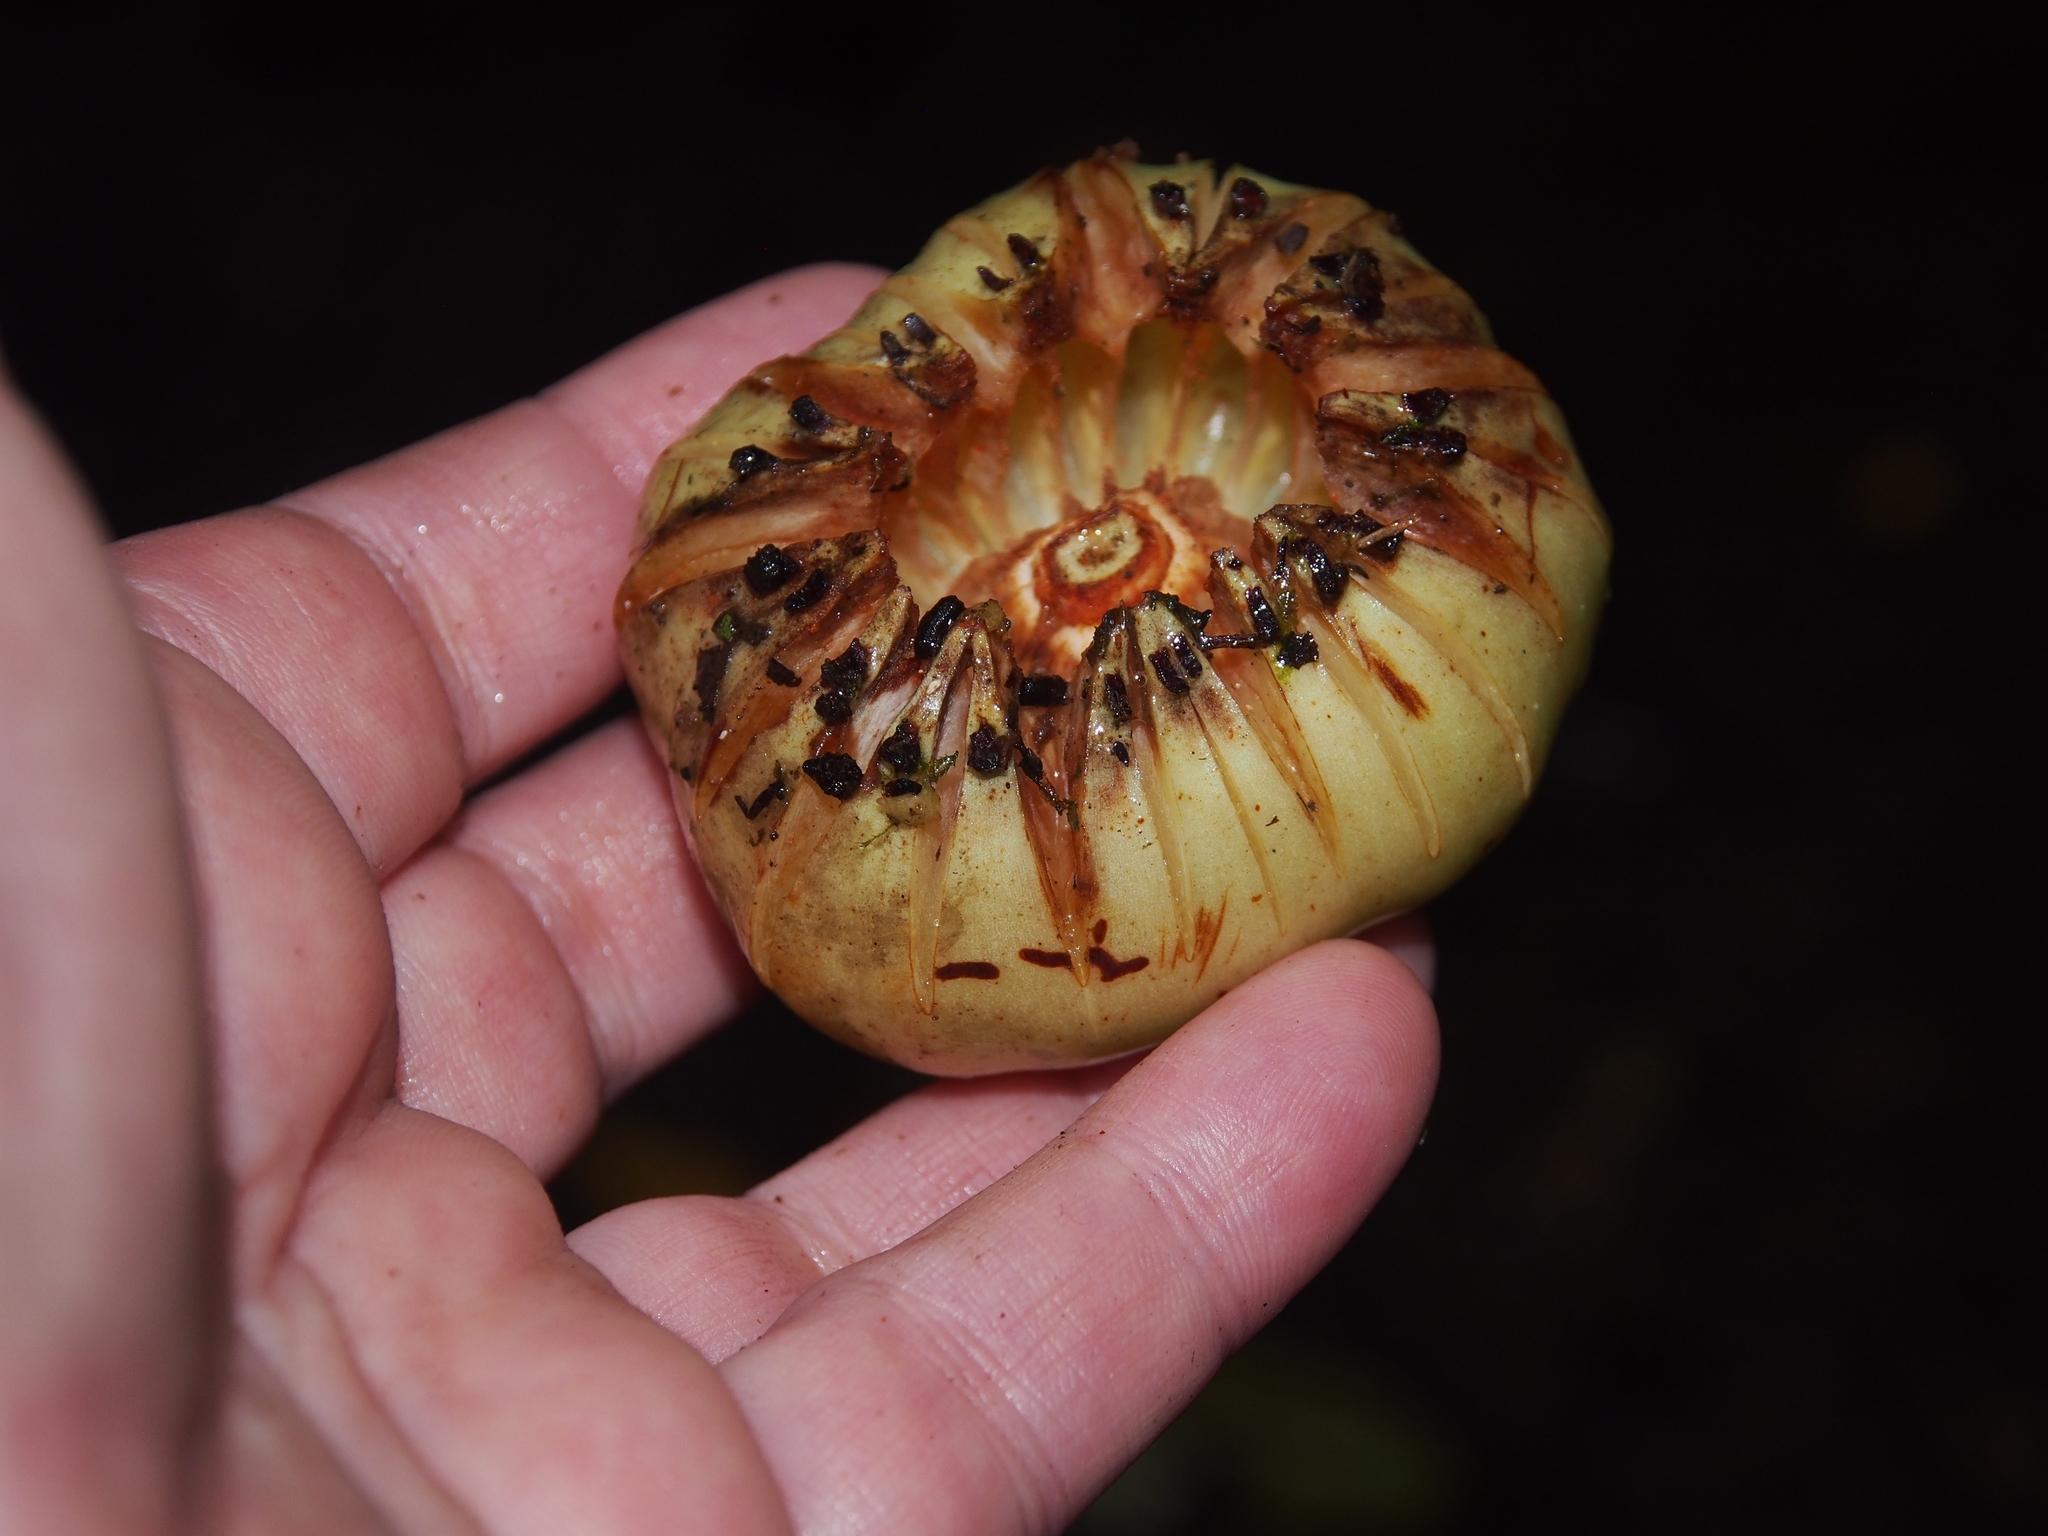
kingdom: Plantae
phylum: Tracheophyta
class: Magnoliopsida
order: Malpighiales
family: Clusiaceae
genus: Clusia
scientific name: Clusia flava
